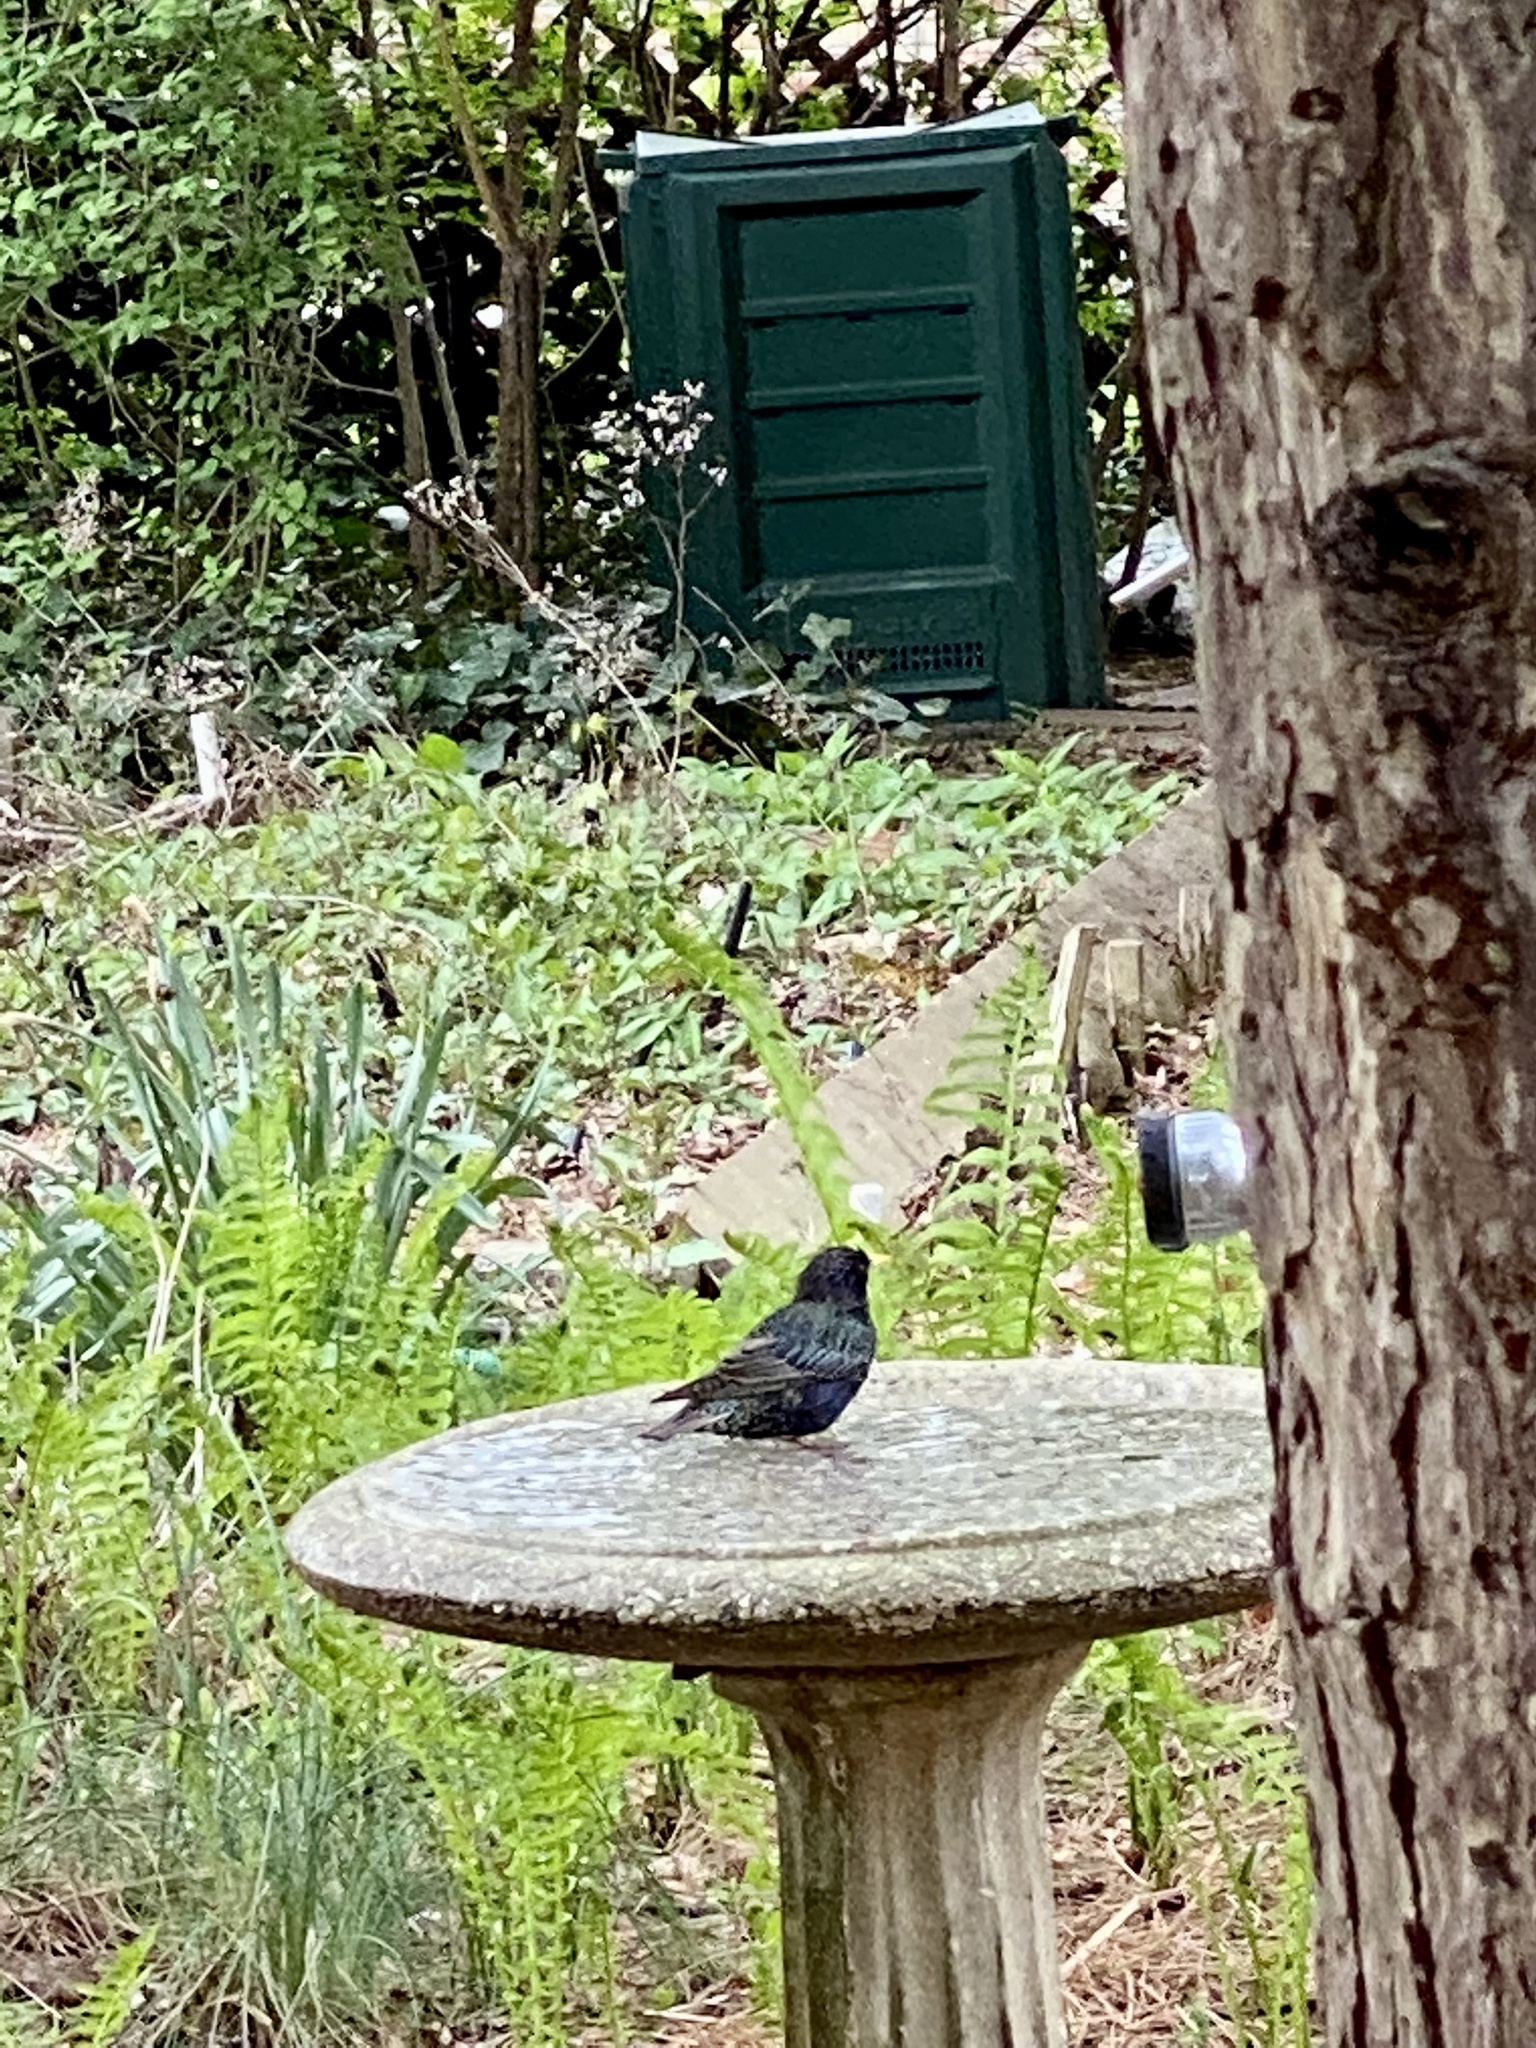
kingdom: Animalia
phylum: Chordata
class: Aves
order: Passeriformes
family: Sturnidae
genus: Sturnus
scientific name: Sturnus vulgaris
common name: Common starling
